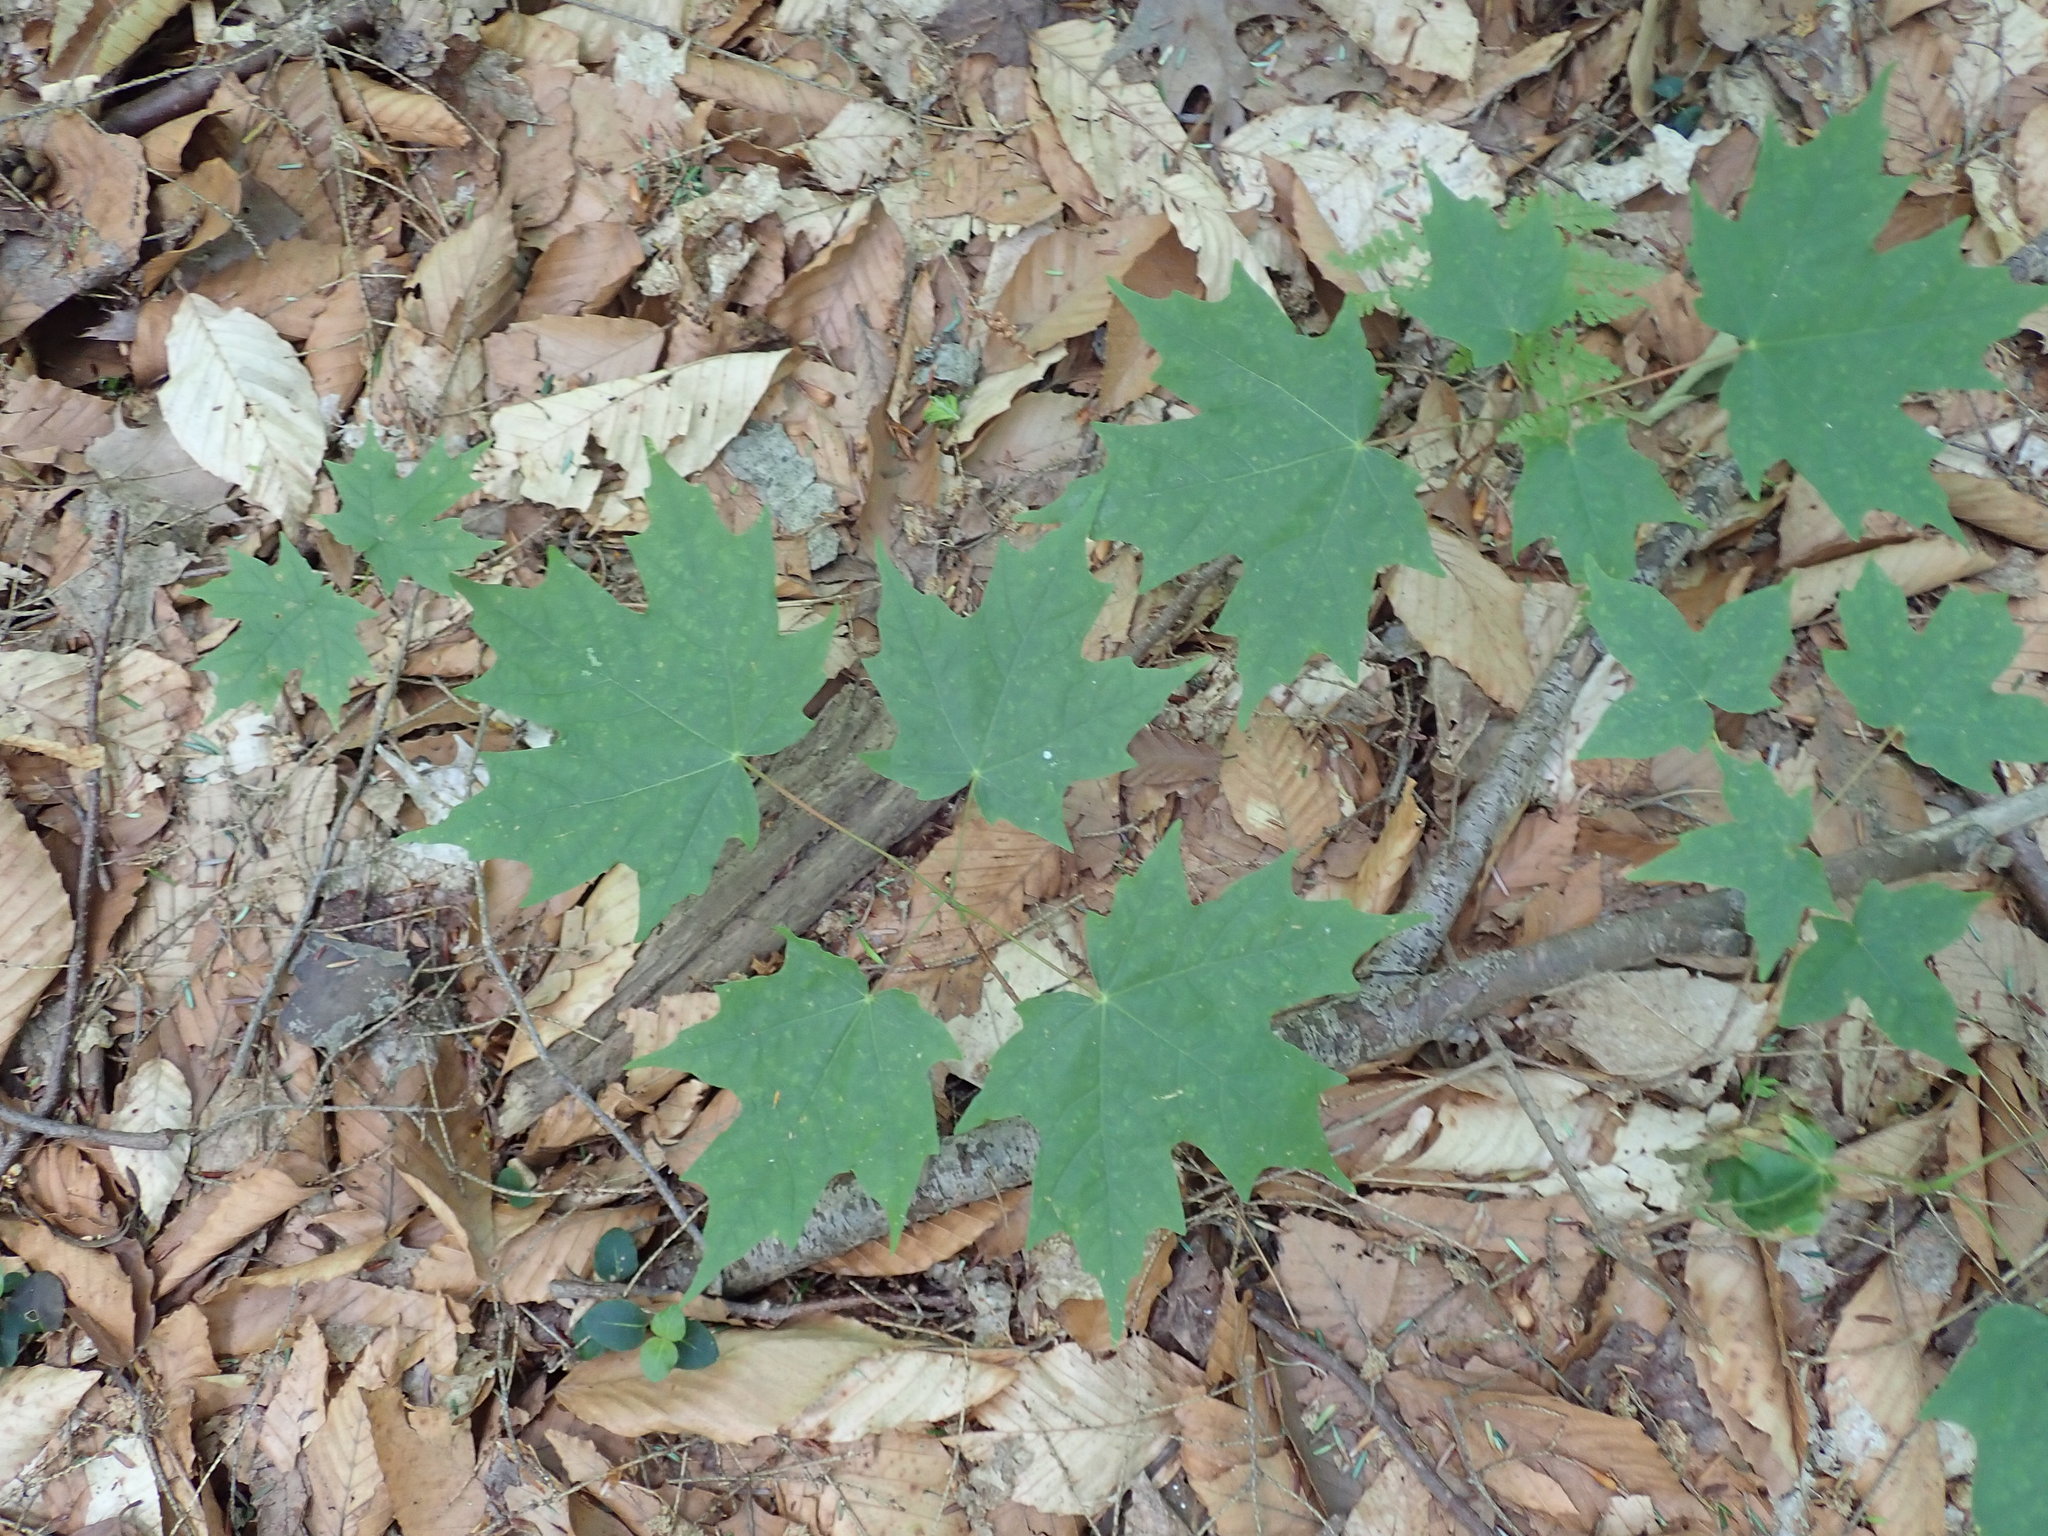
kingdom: Plantae
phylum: Tracheophyta
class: Magnoliopsida
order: Sapindales
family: Sapindaceae
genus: Acer
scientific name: Acer saccharum
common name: Sugar maple
